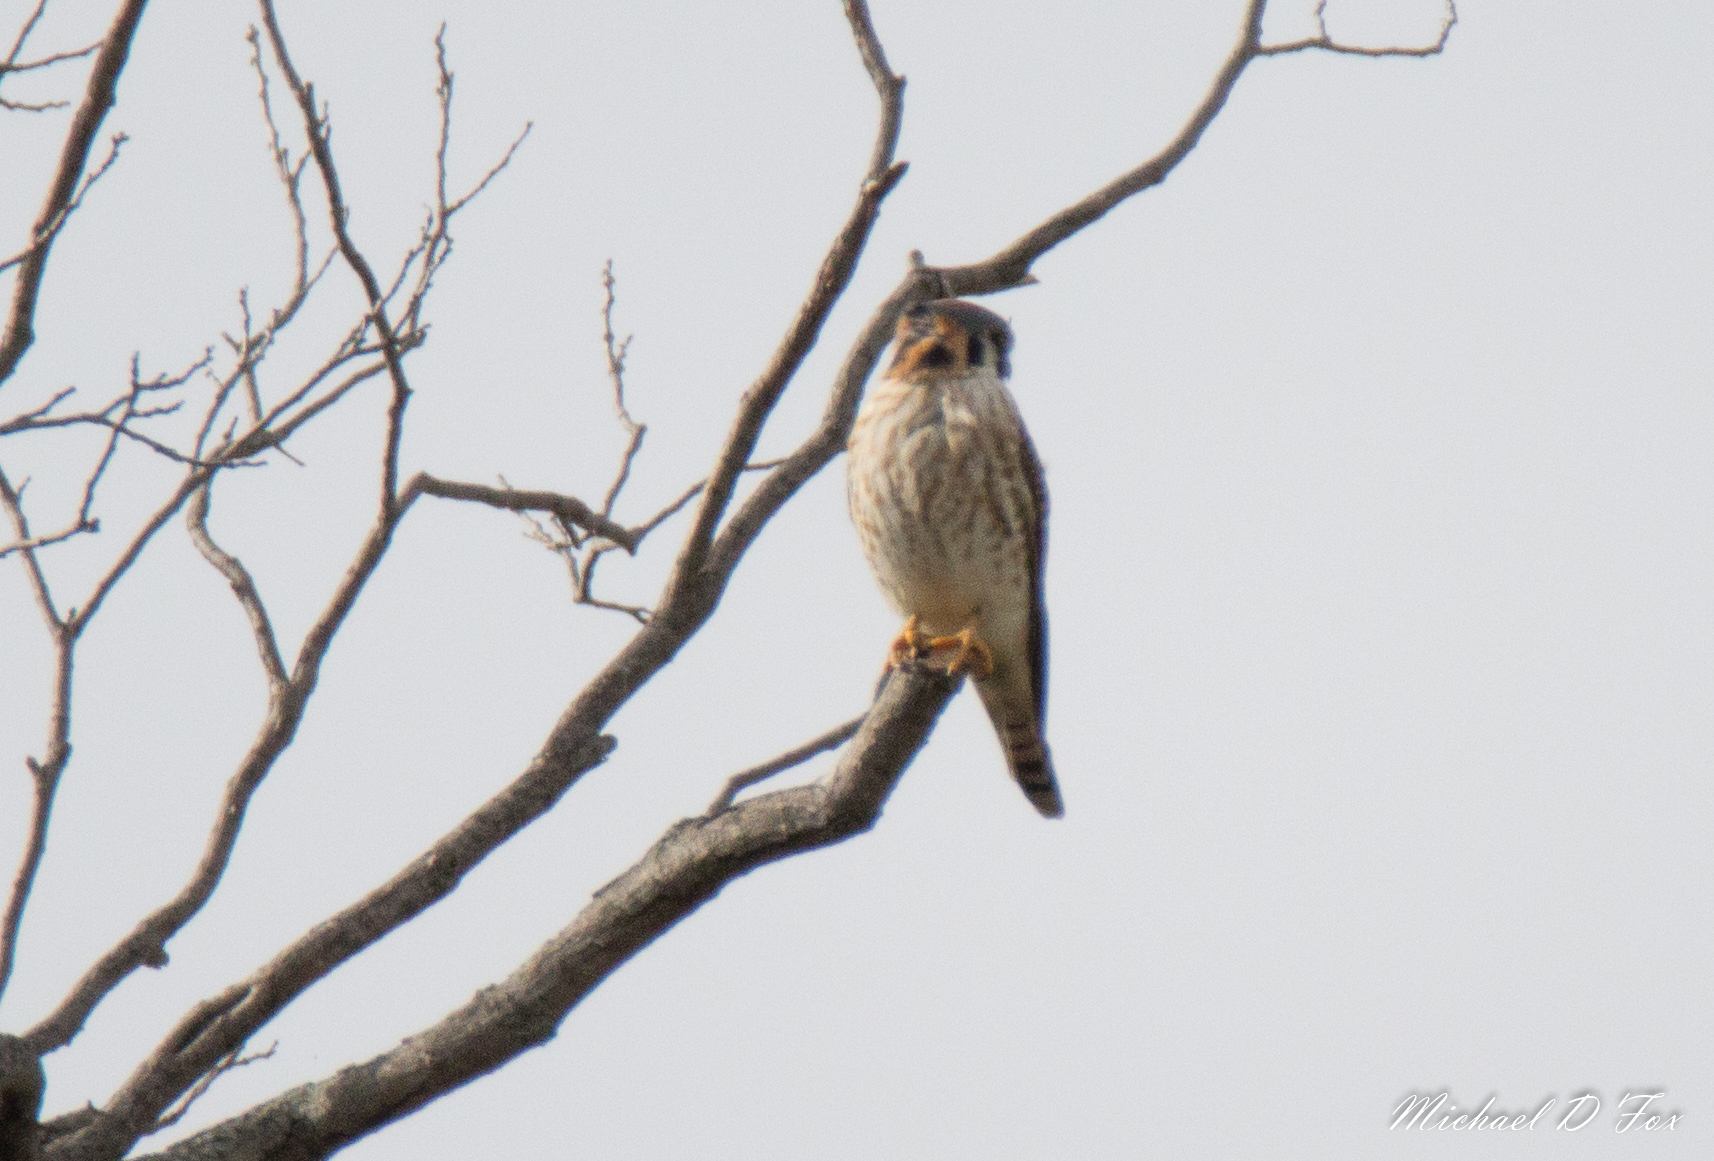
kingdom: Animalia
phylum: Chordata
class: Aves
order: Falconiformes
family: Falconidae
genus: Falco
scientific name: Falco sparverius
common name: American kestrel
